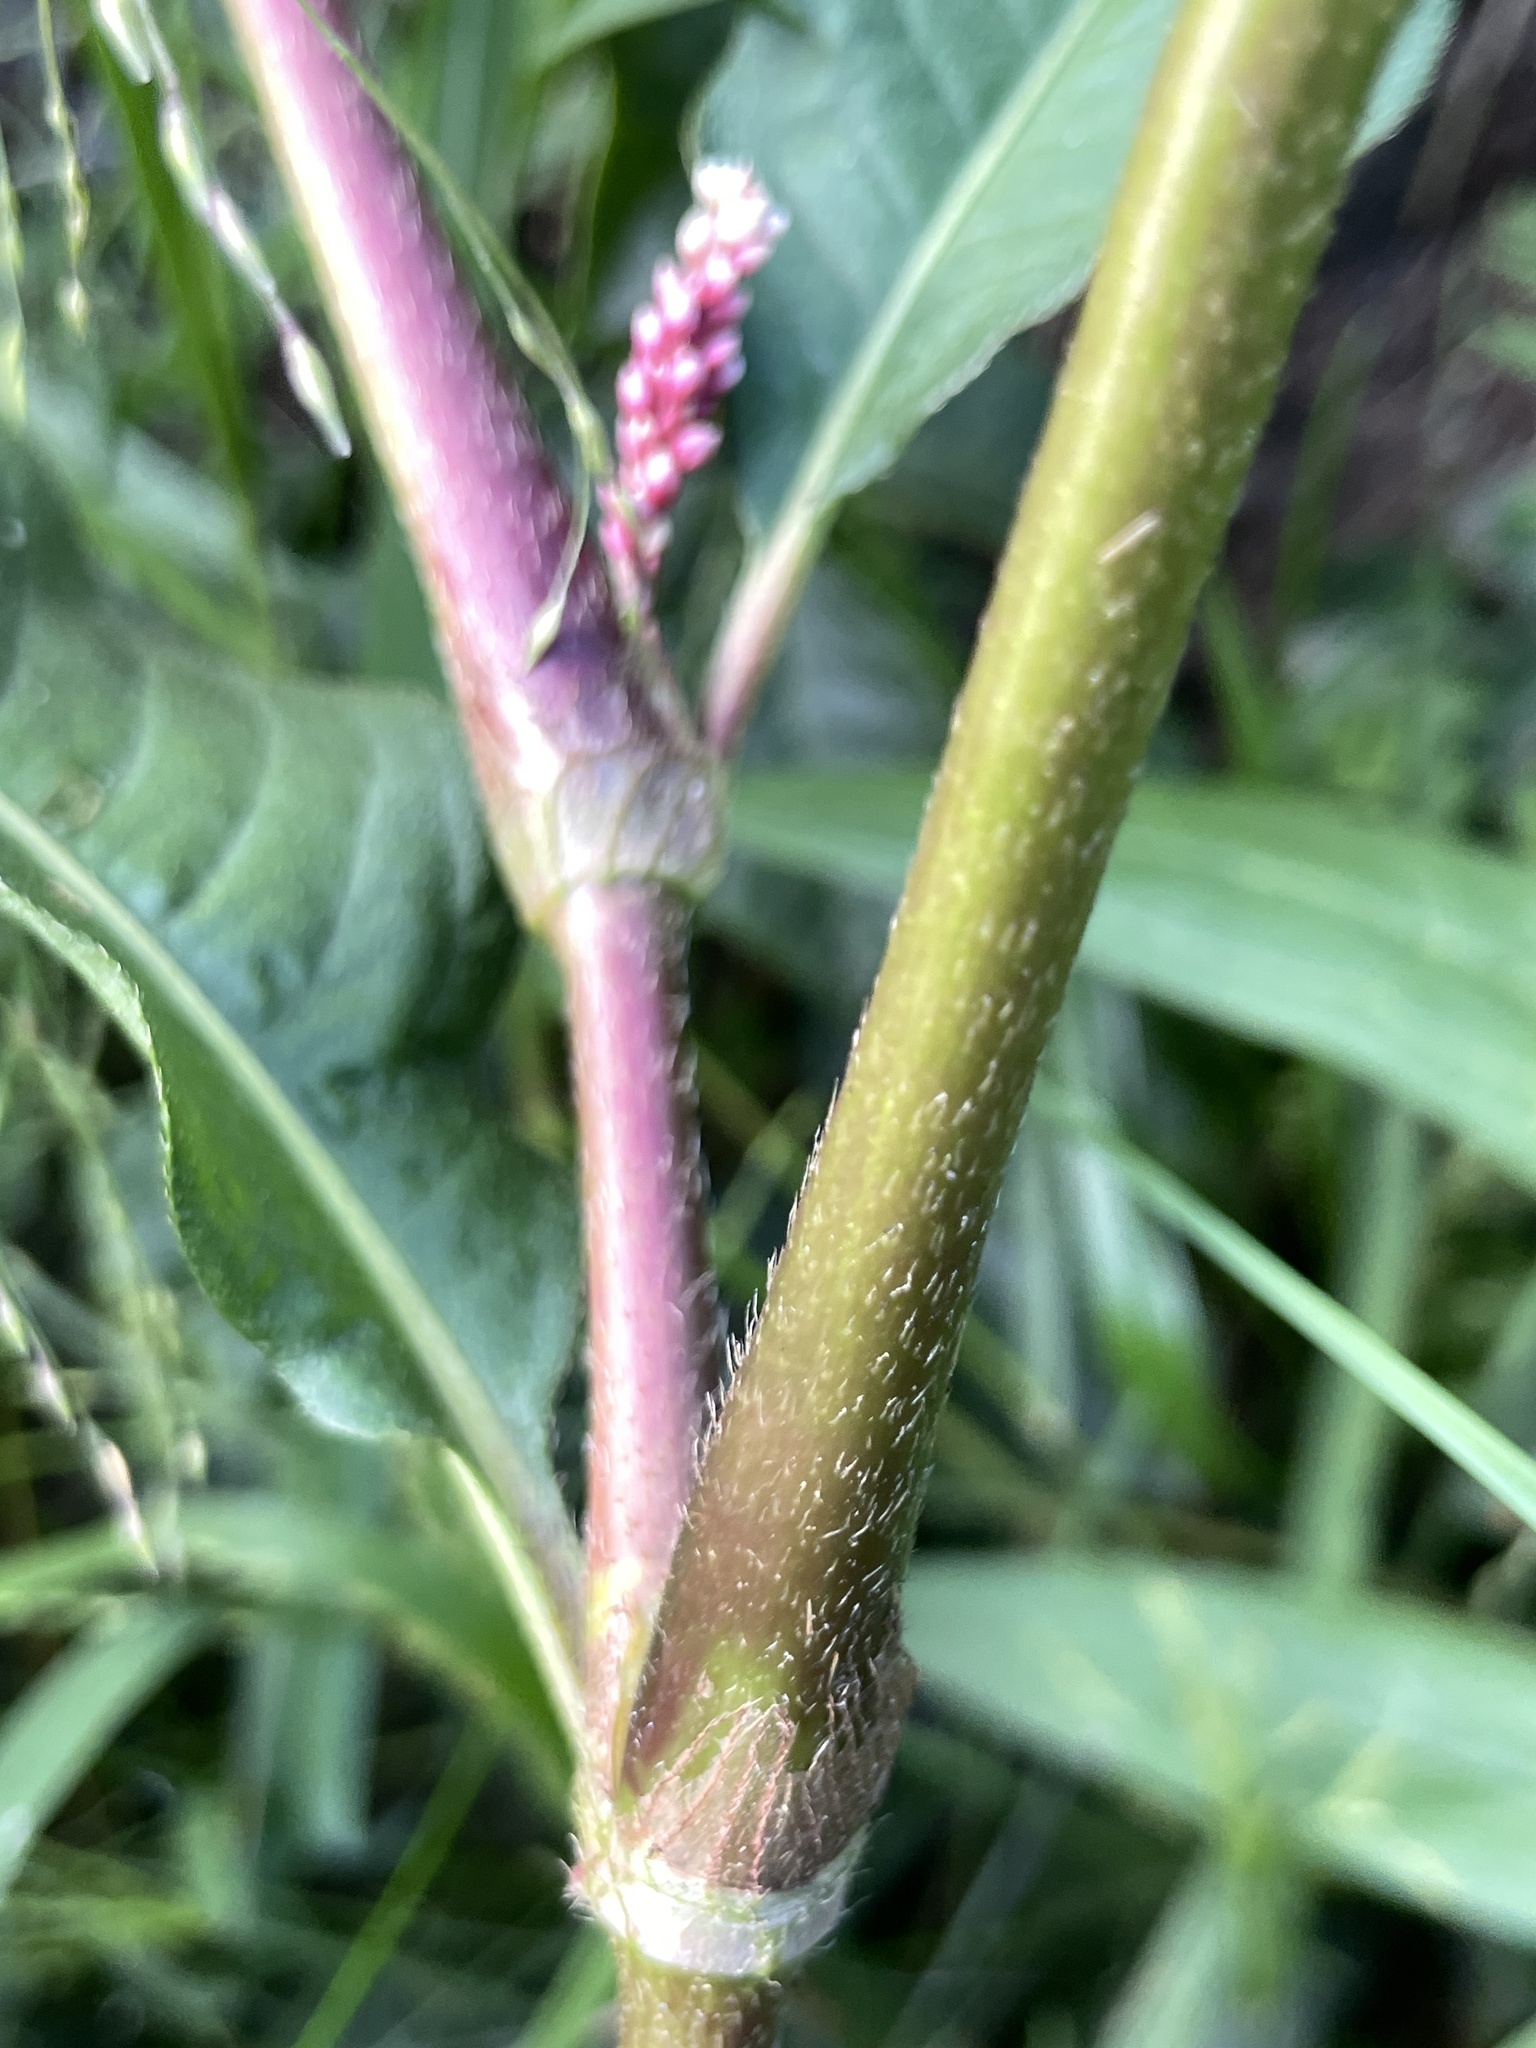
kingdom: Plantae
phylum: Tracheophyta
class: Magnoliopsida
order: Caryophyllales
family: Polygonaceae
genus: Persicaria
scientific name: Persicaria extremiorientalis
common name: Far-eastern smartweed
